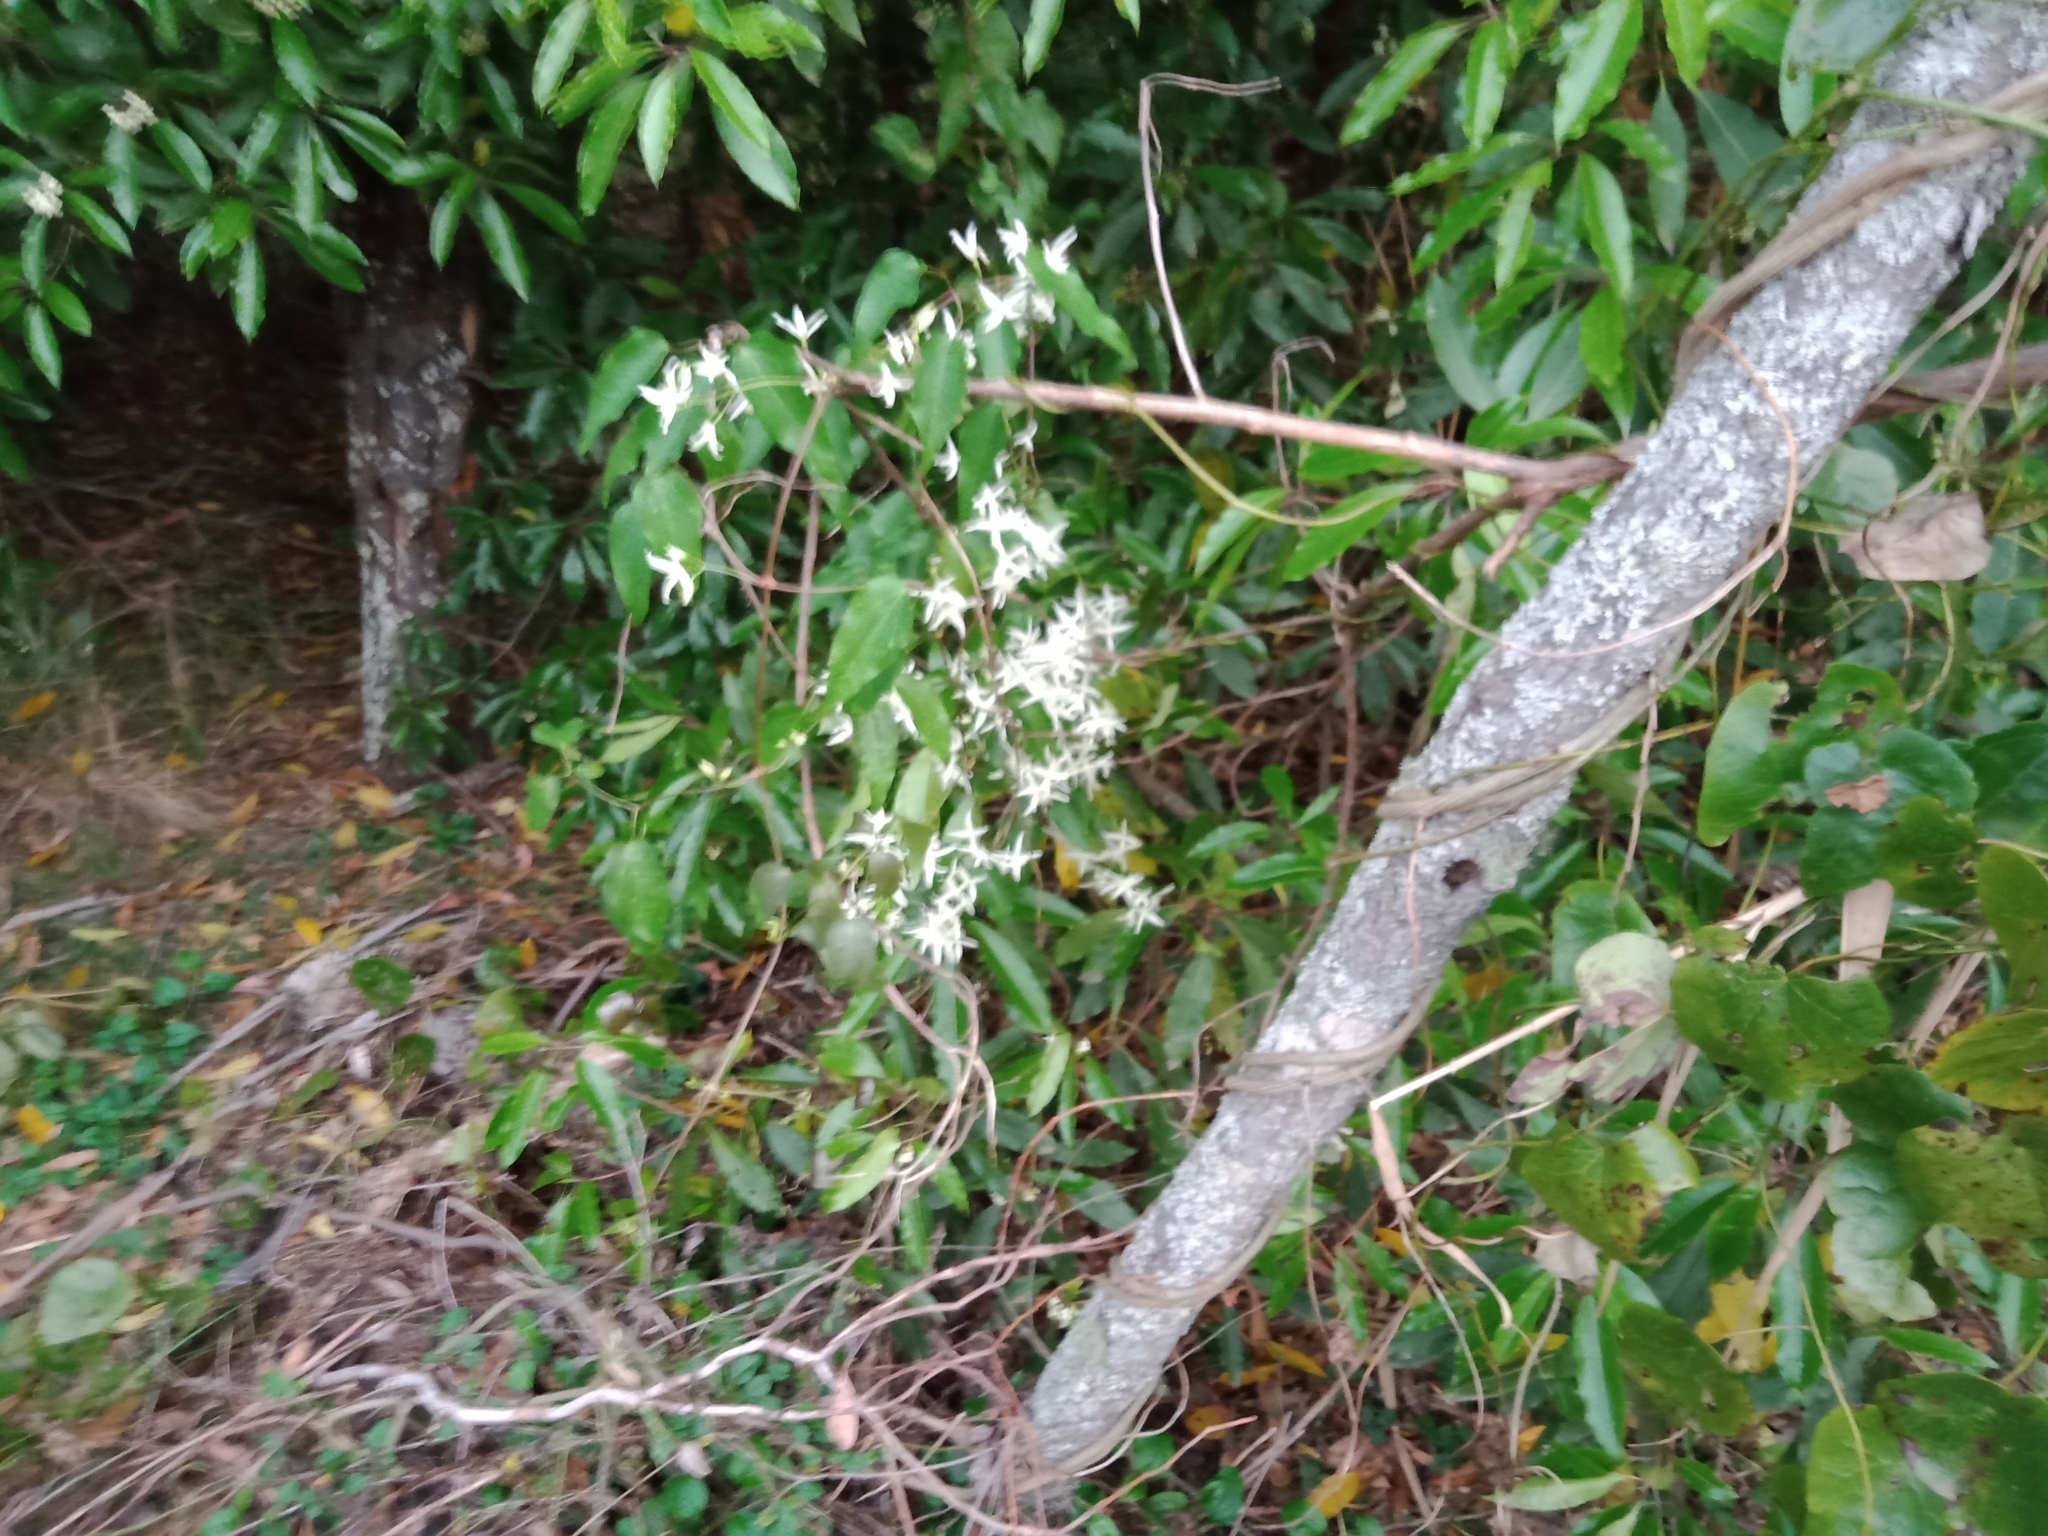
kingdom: Plantae
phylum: Tracheophyta
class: Magnoliopsida
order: Ranunculales
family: Ranunculaceae
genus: Clematis
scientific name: Clematis glycinoides
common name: Forest clematis
